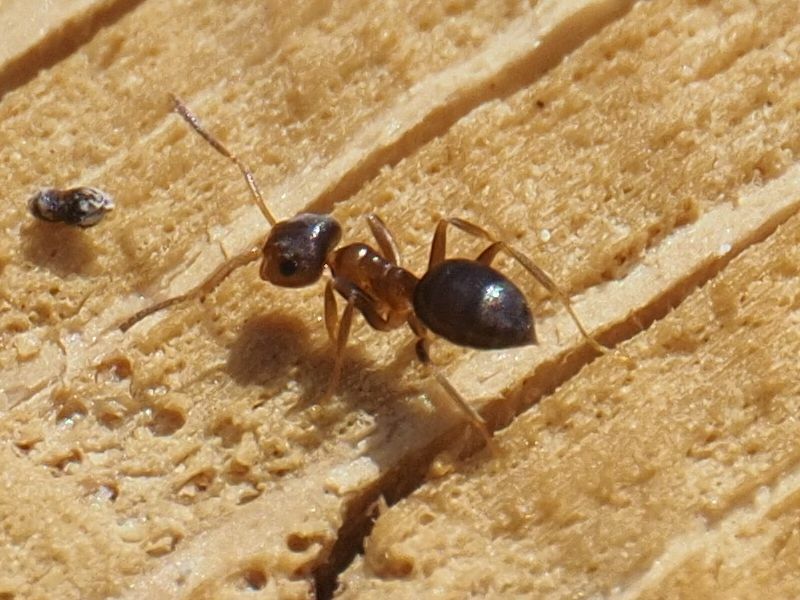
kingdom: Animalia
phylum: Arthropoda
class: Insecta
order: Hymenoptera
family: Formicidae
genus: Lasius
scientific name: Lasius brunneus
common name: Brown ant
